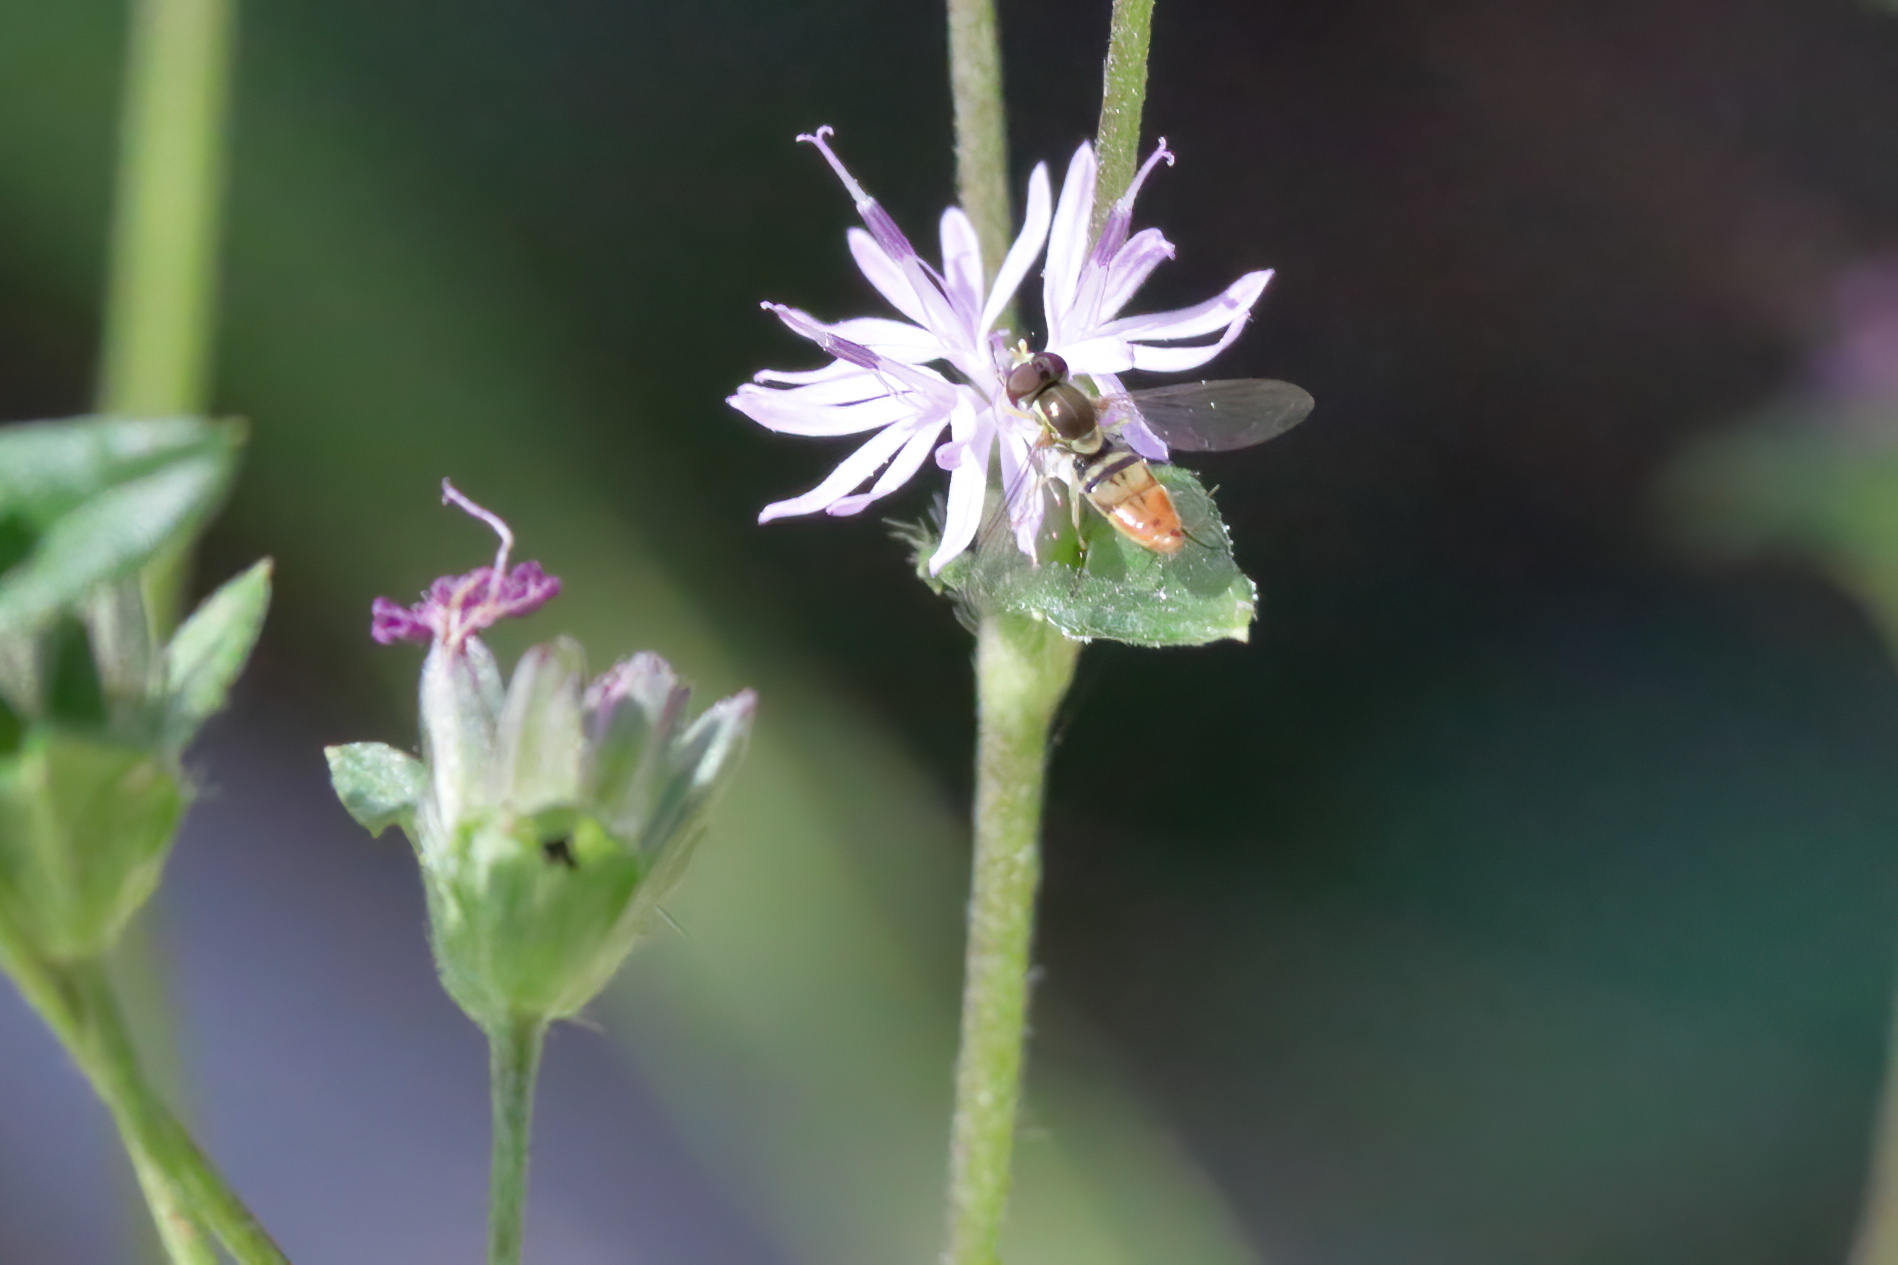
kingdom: Animalia
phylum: Arthropoda
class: Insecta
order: Diptera
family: Syrphidae
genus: Toxomerus
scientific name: Toxomerus marginatus
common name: Syrphid fly
